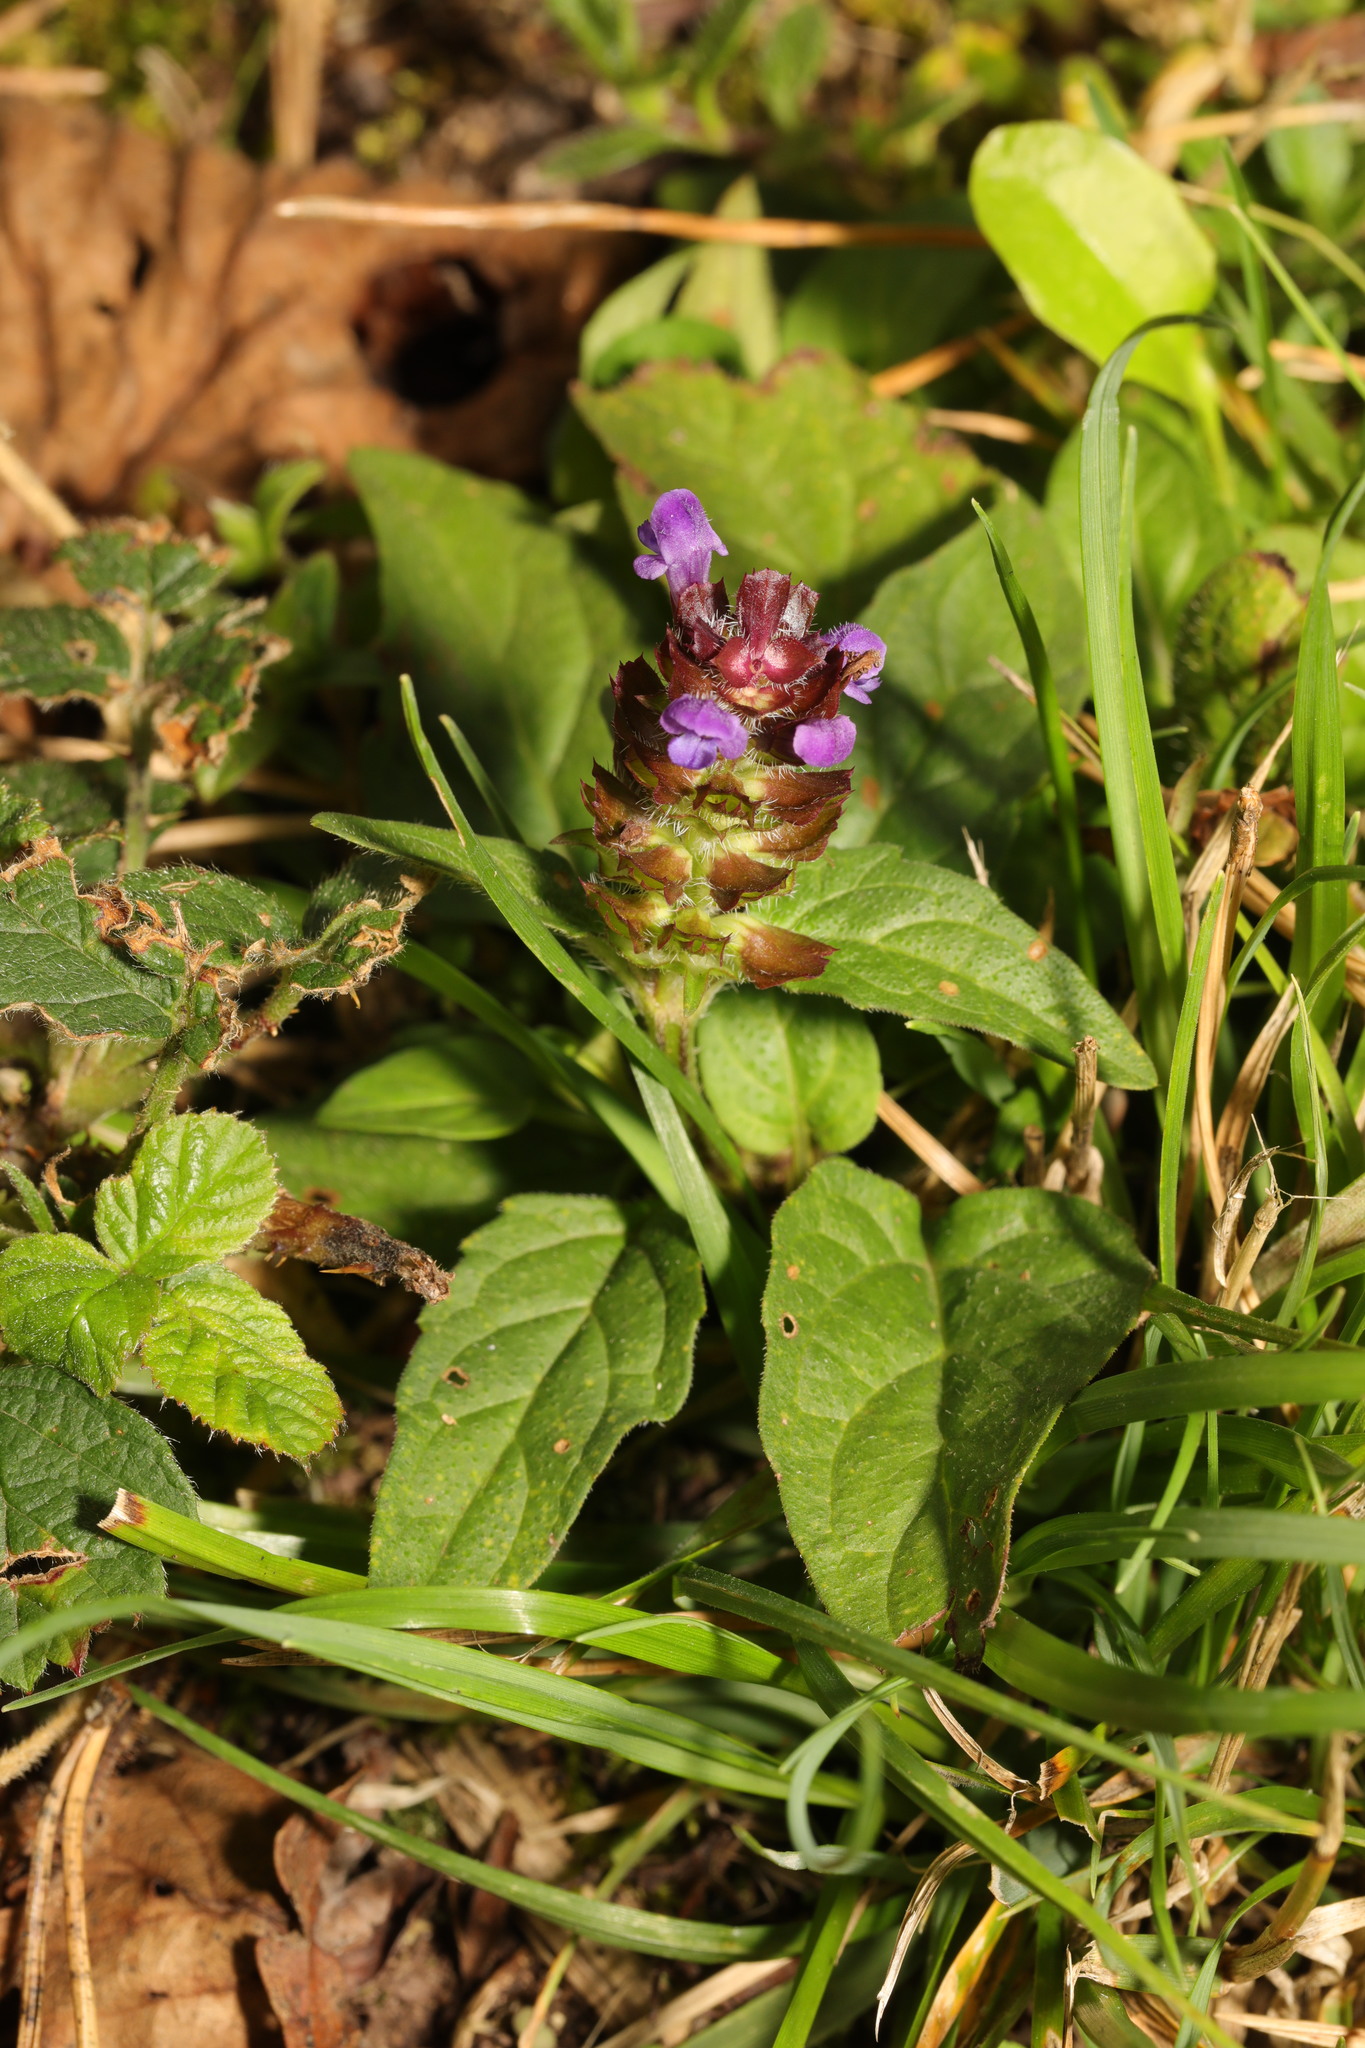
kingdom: Plantae
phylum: Tracheophyta
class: Magnoliopsida
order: Lamiales
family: Lamiaceae
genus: Prunella
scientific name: Prunella vulgaris
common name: Heal-all
